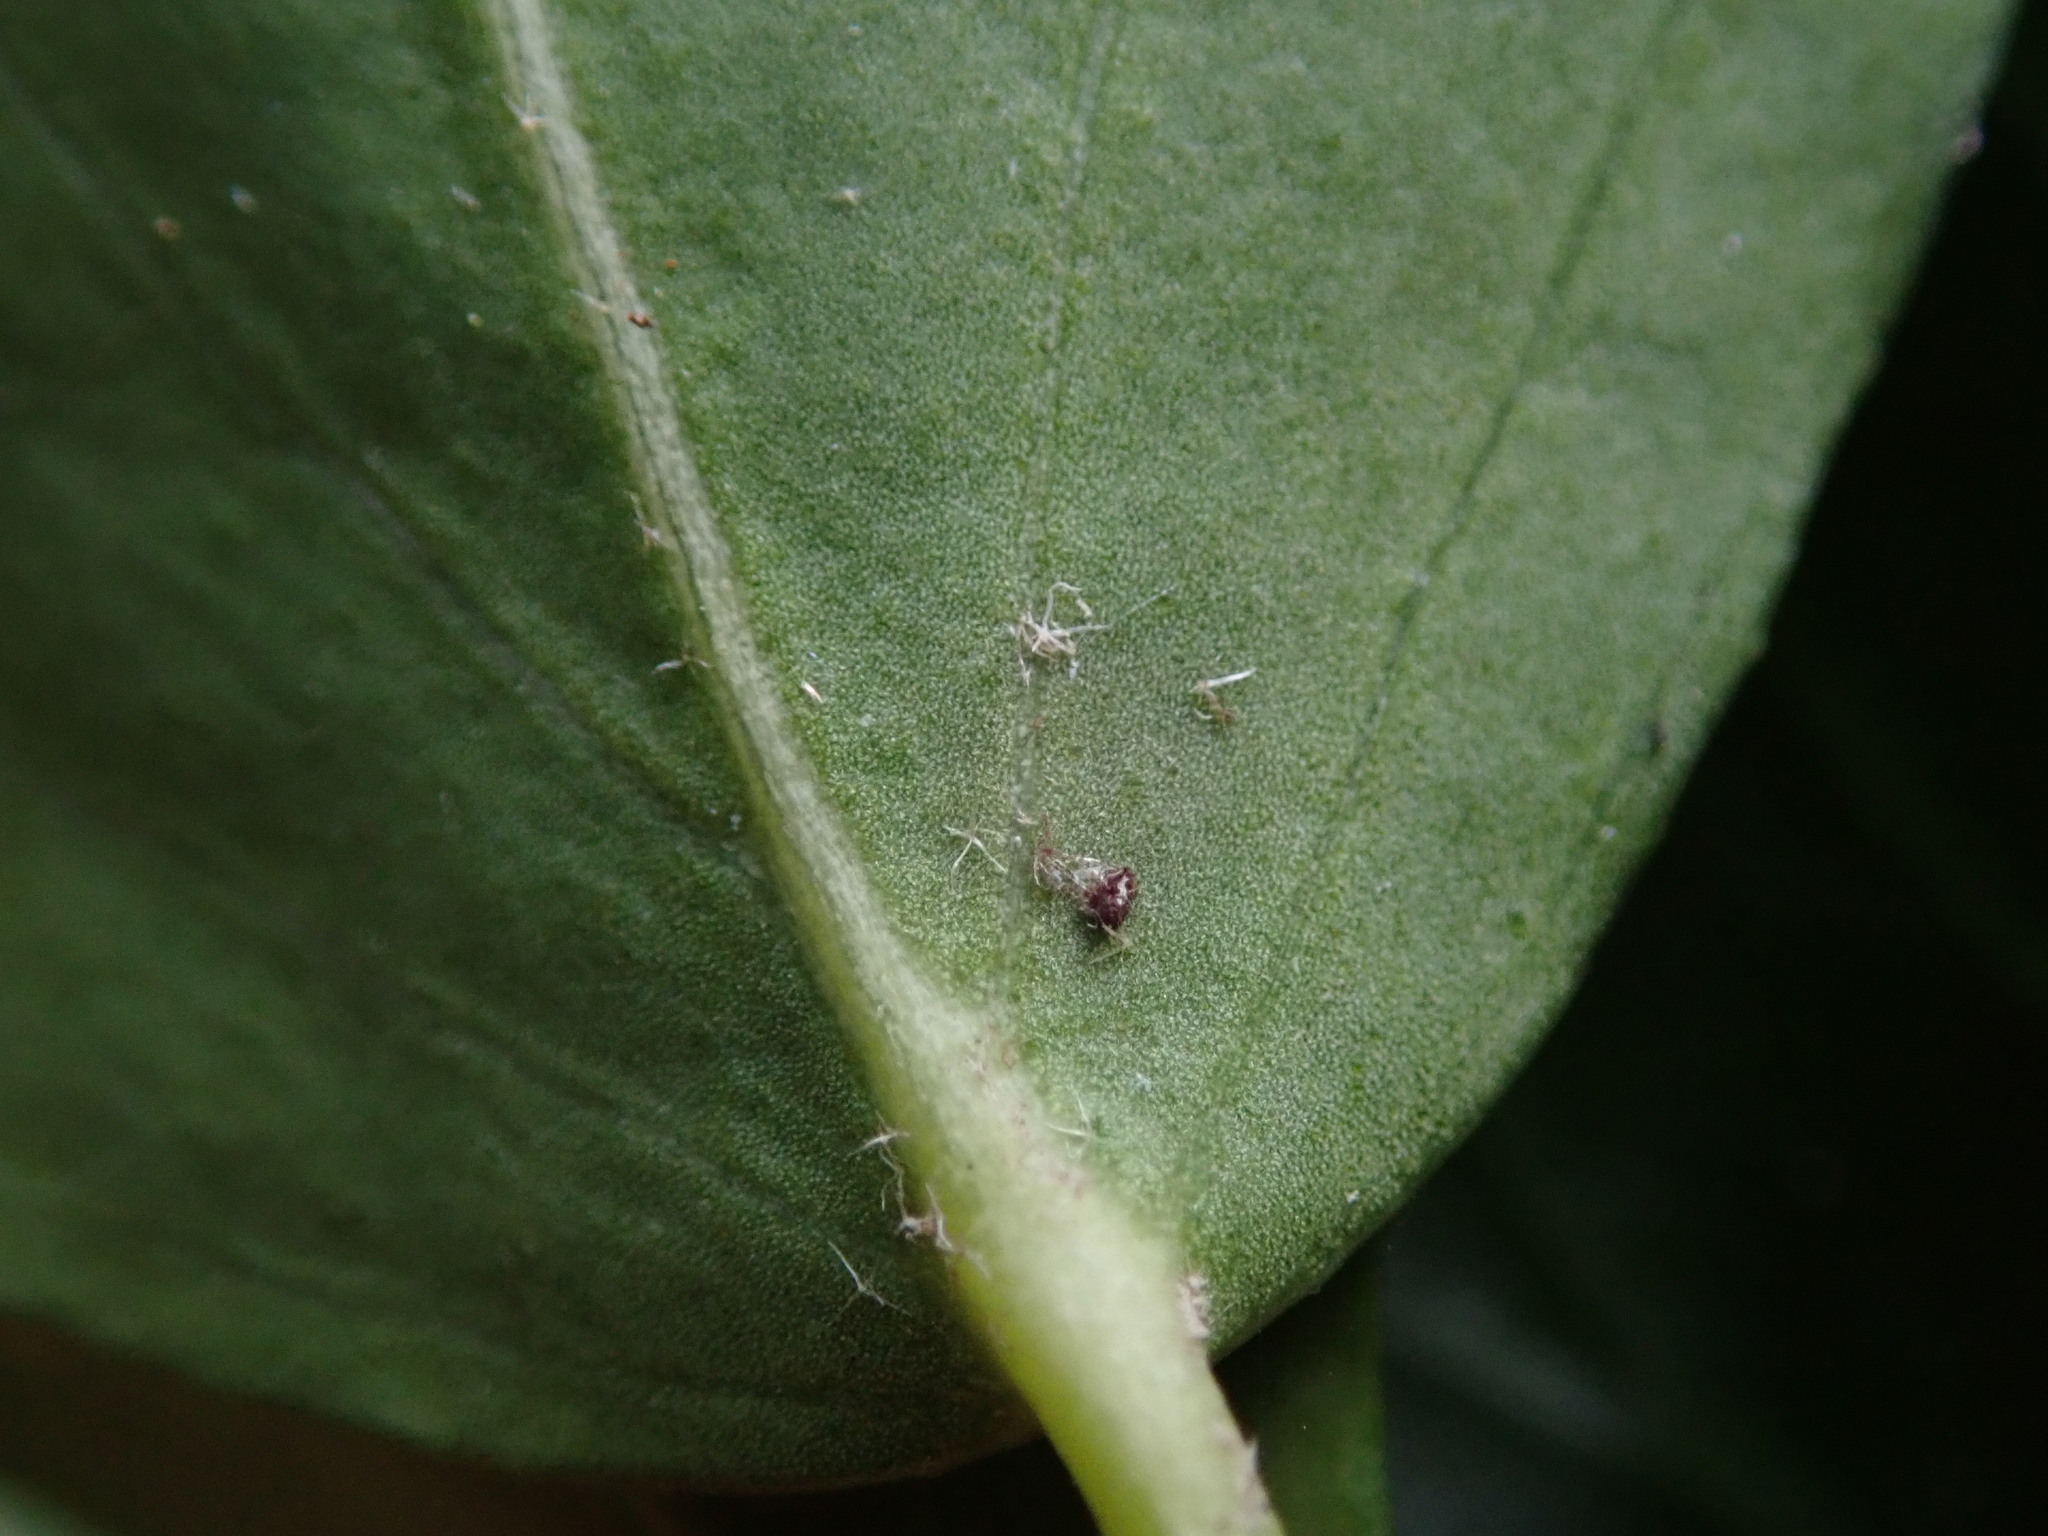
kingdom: Plantae
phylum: Tracheophyta
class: Magnoliopsida
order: Apiales
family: Araliaceae
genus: Hedera
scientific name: Hedera helix
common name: Ivy
